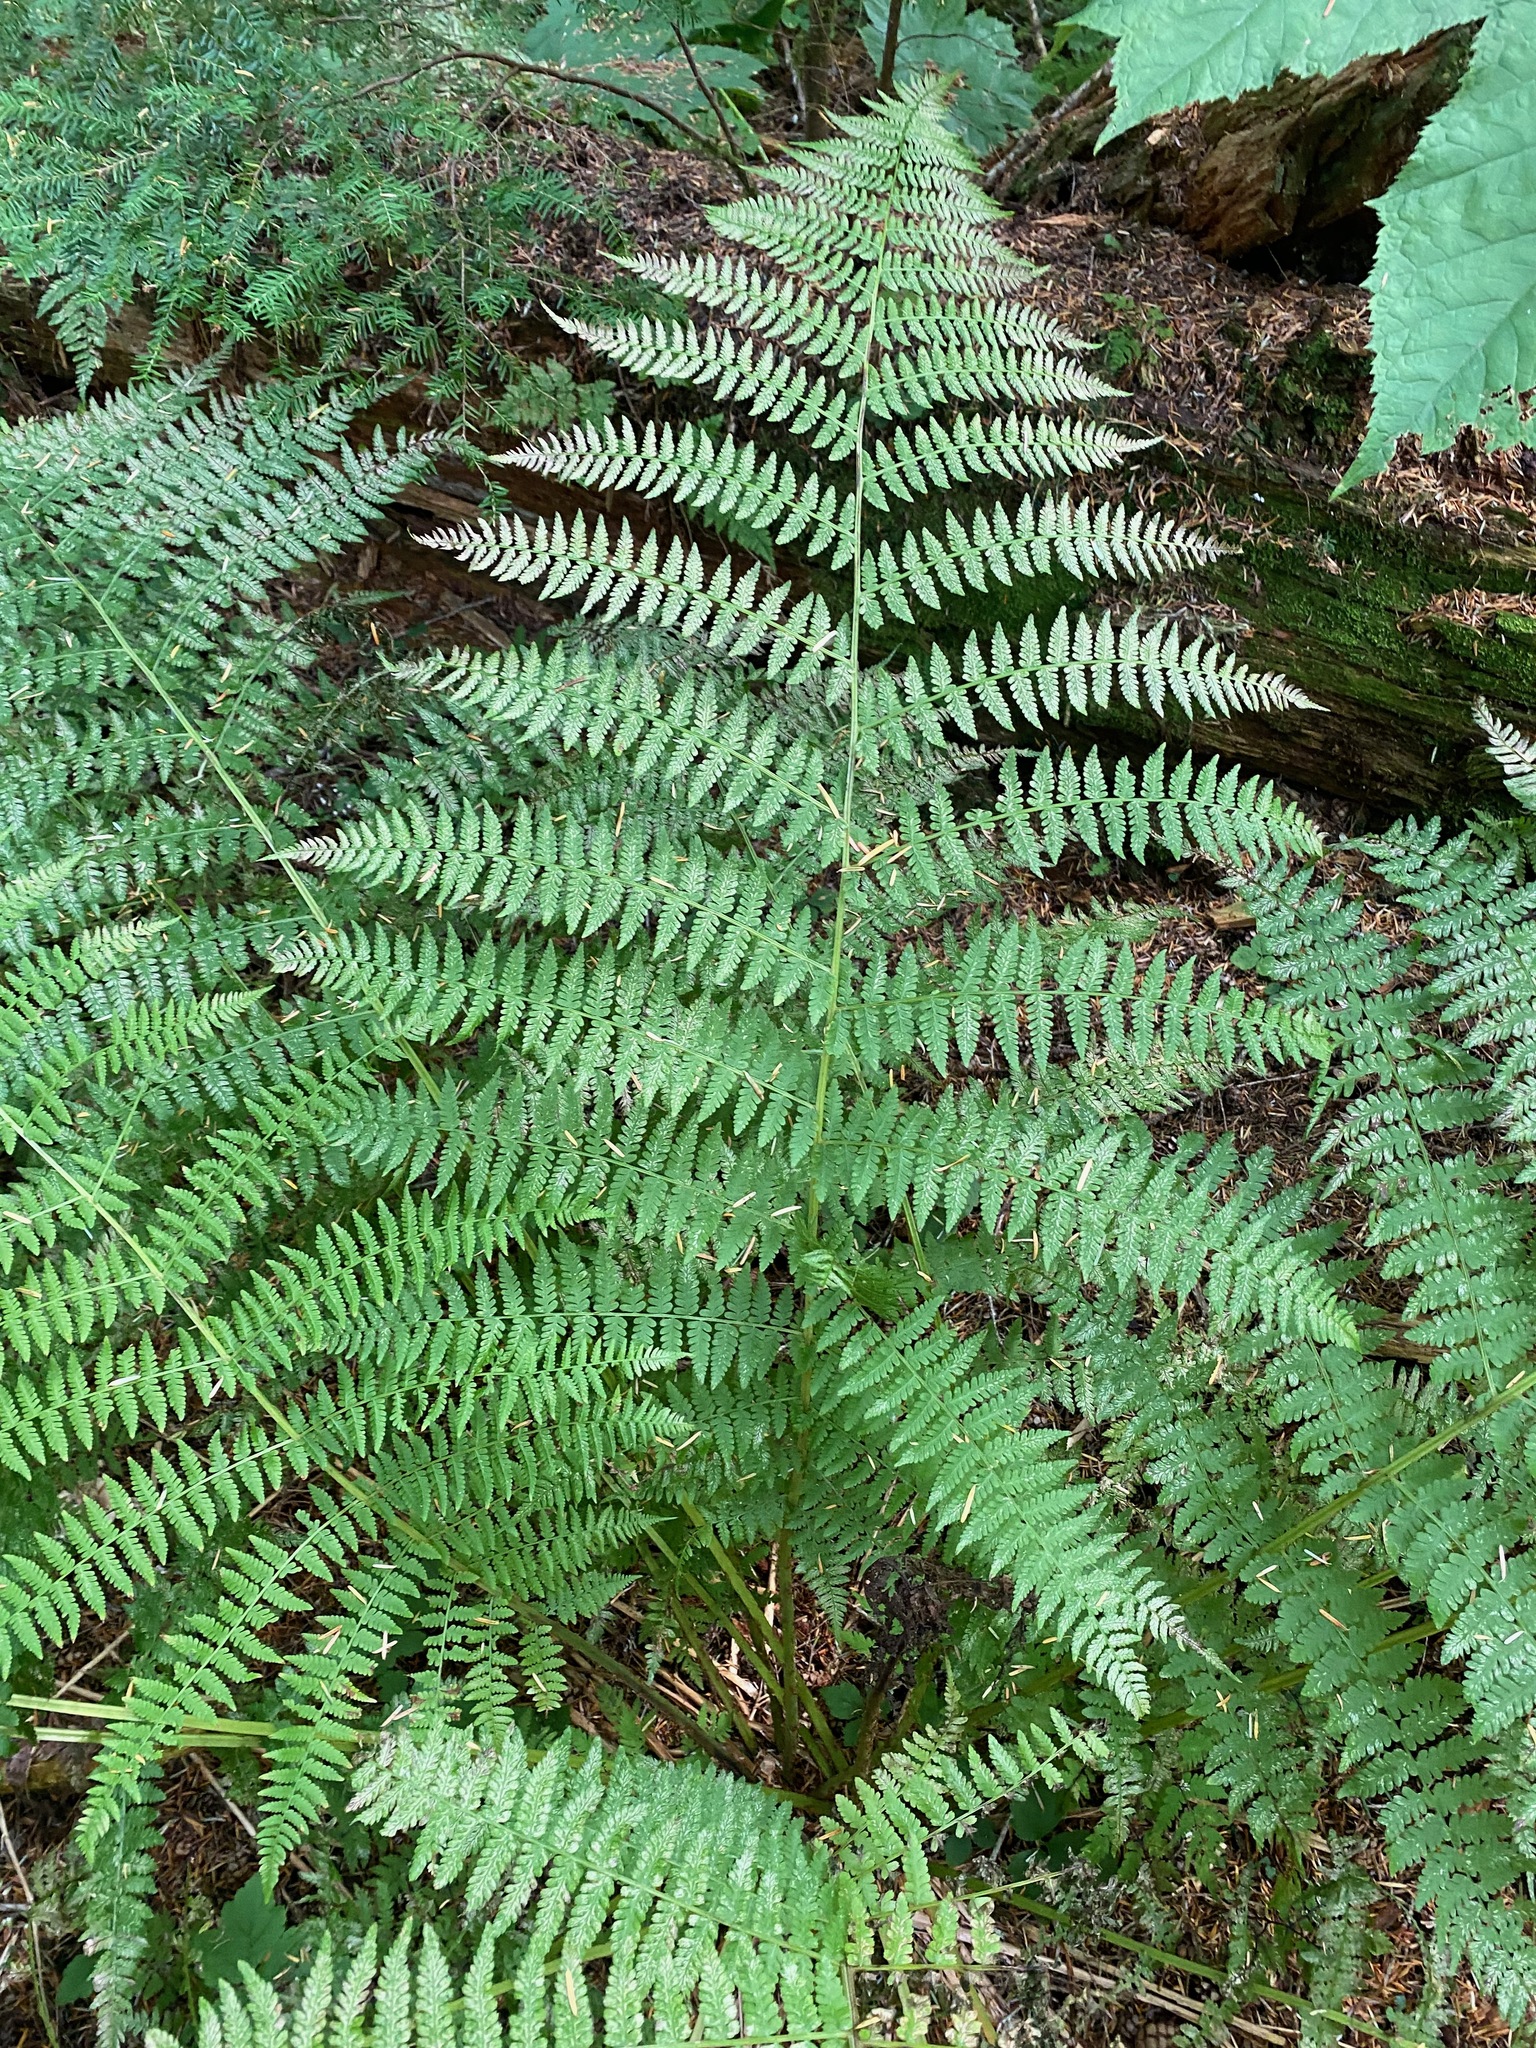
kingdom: Plantae
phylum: Tracheophyta
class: Polypodiopsida
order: Polypodiales
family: Athyriaceae
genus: Athyrium
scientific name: Athyrium filix-femina
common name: Lady fern
